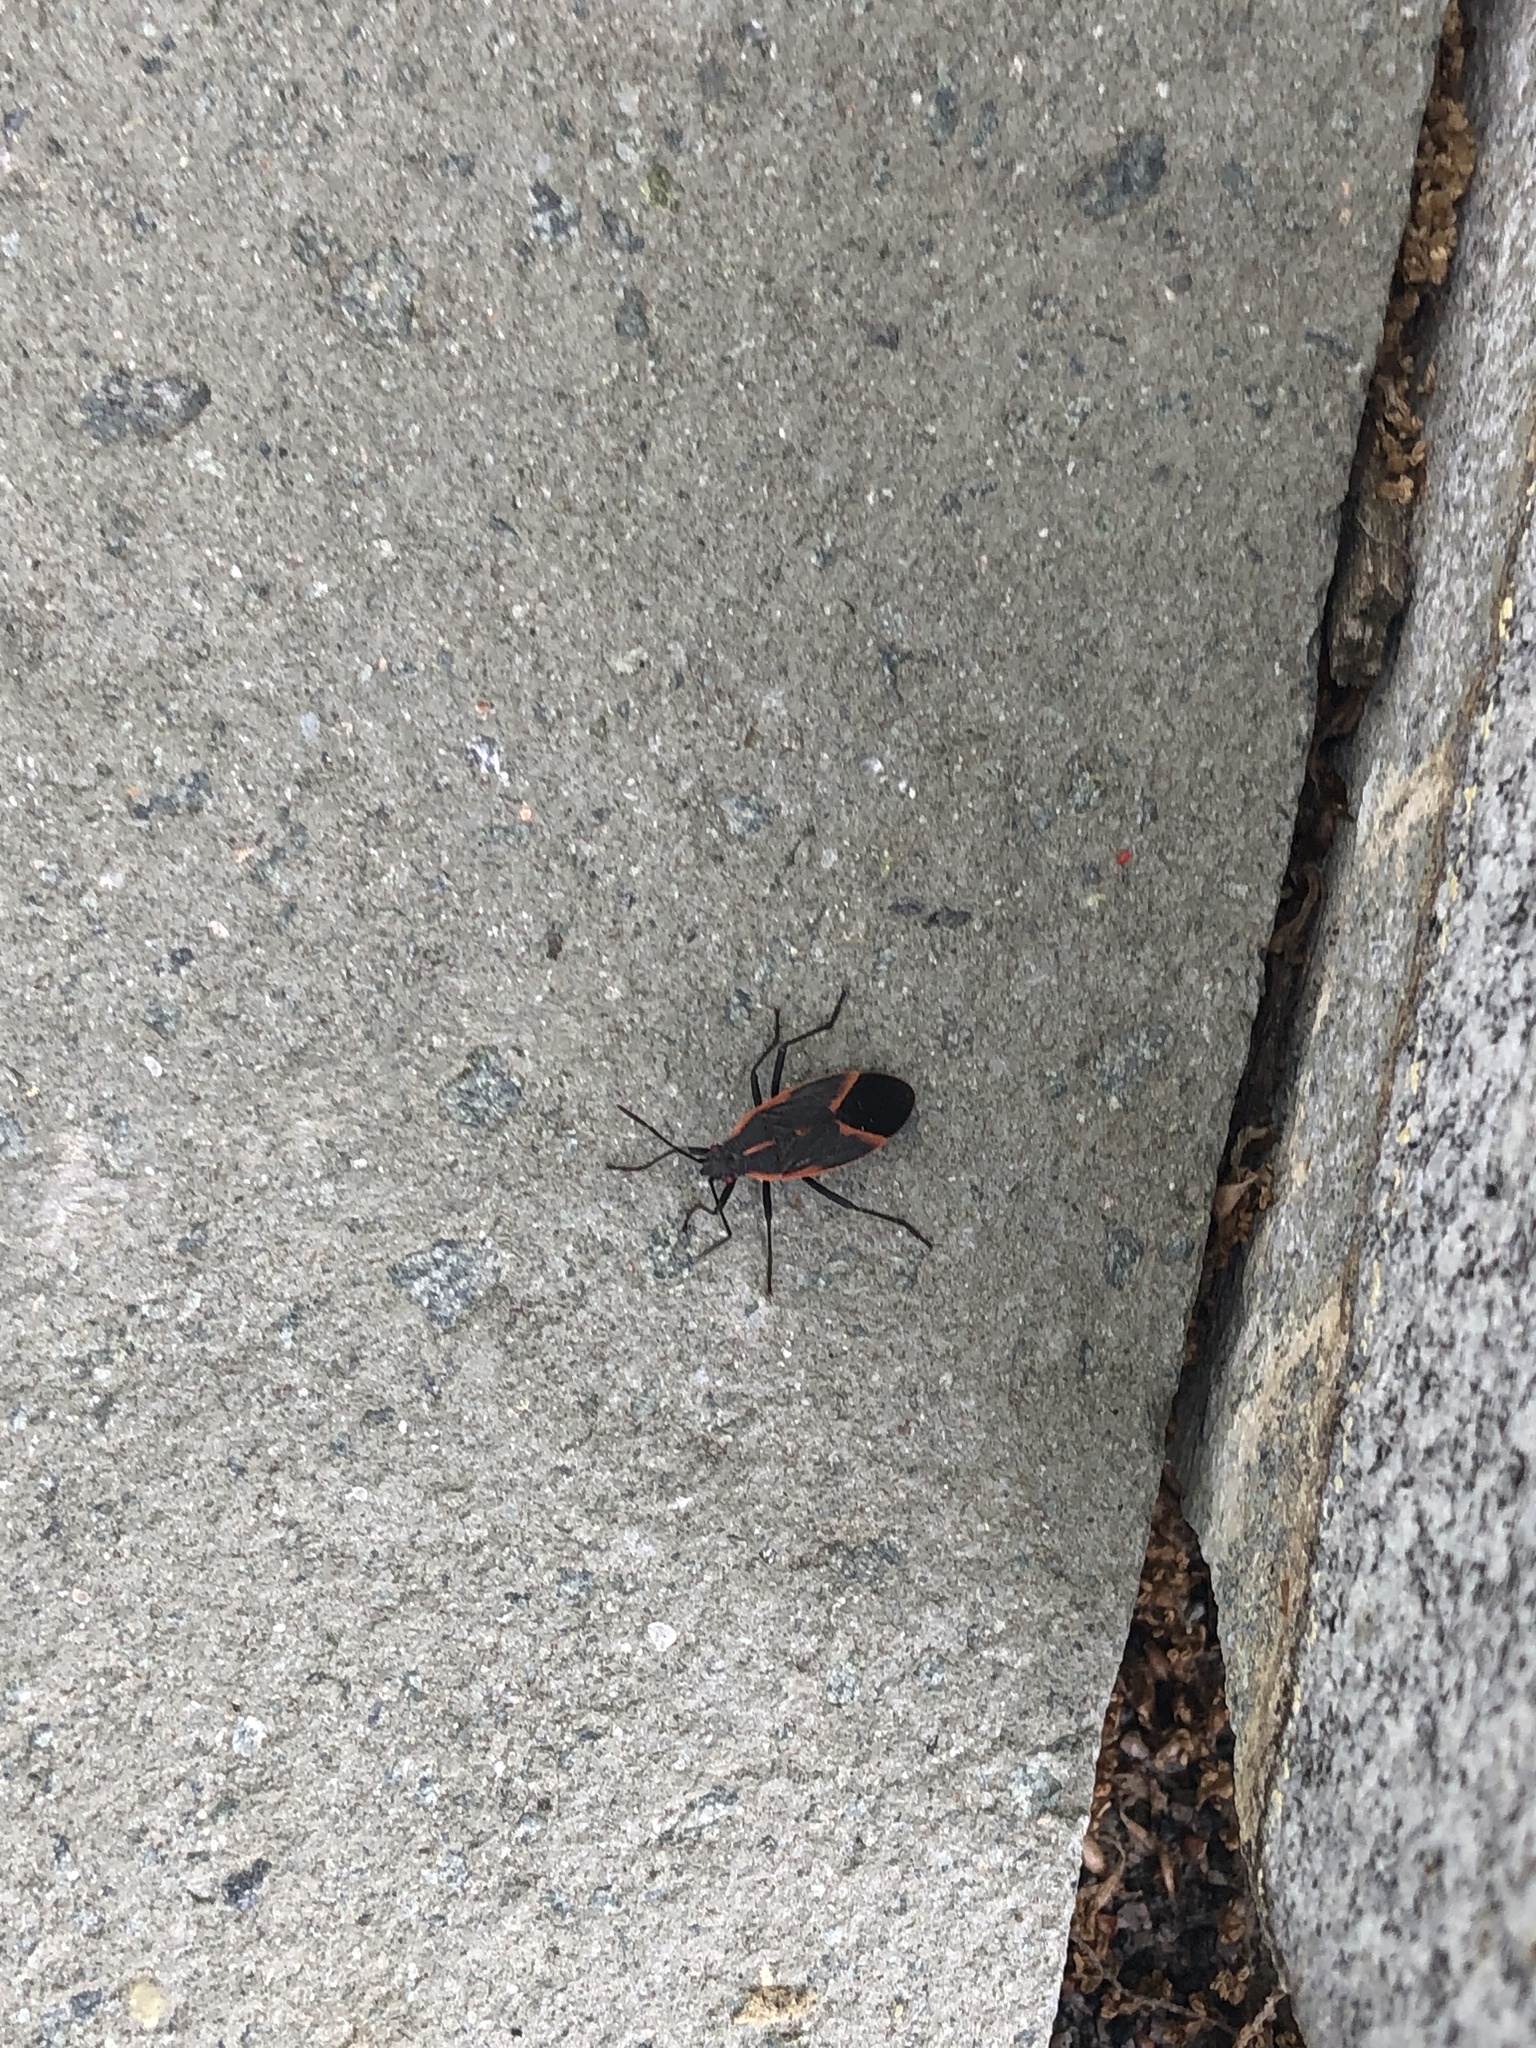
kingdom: Animalia
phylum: Arthropoda
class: Insecta
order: Hemiptera
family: Rhopalidae
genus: Boisea
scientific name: Boisea trivittata
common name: Boxelder bug
